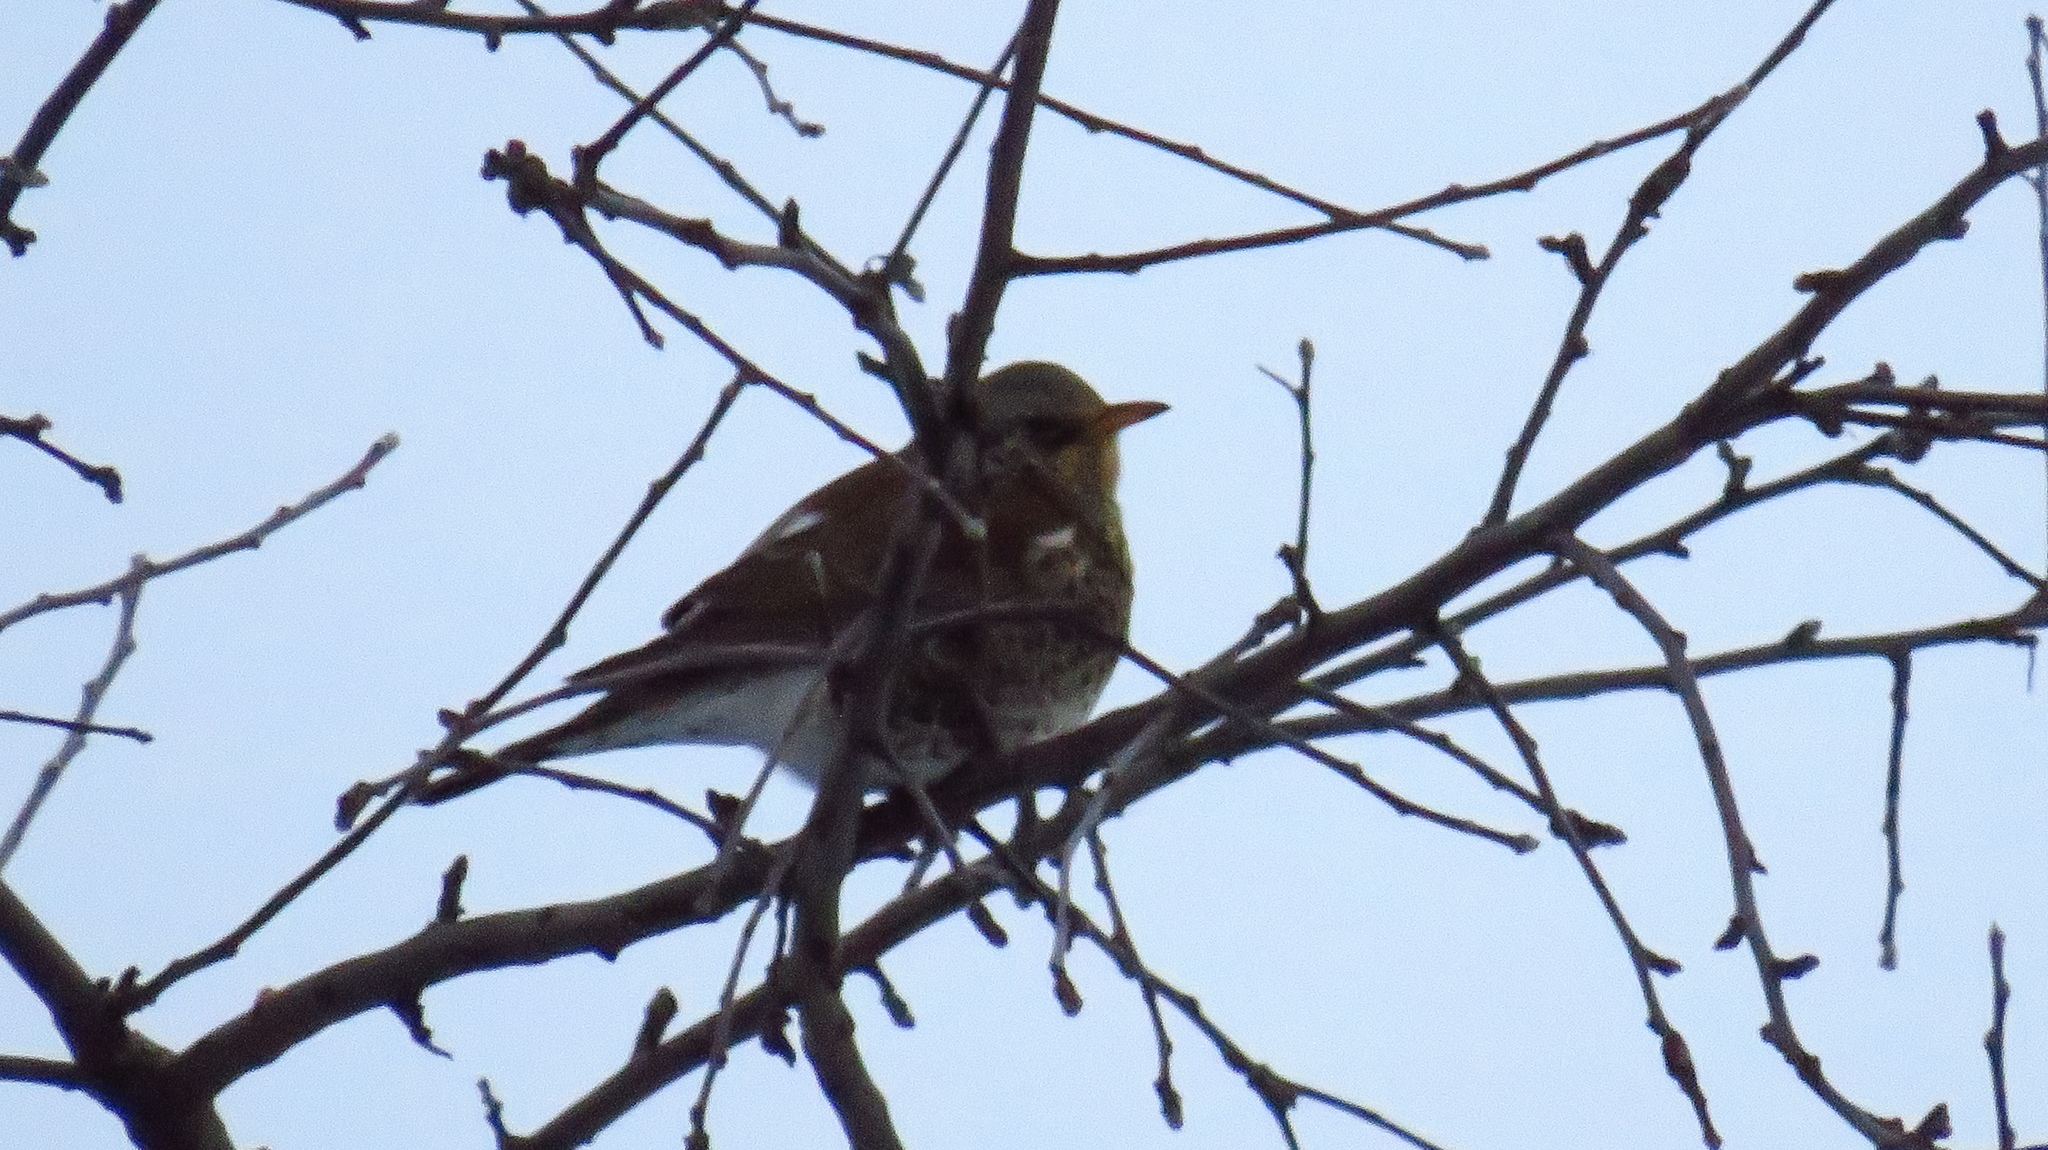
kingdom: Animalia
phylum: Chordata
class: Aves
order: Passeriformes
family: Turdidae
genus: Turdus
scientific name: Turdus pilaris
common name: Fieldfare
